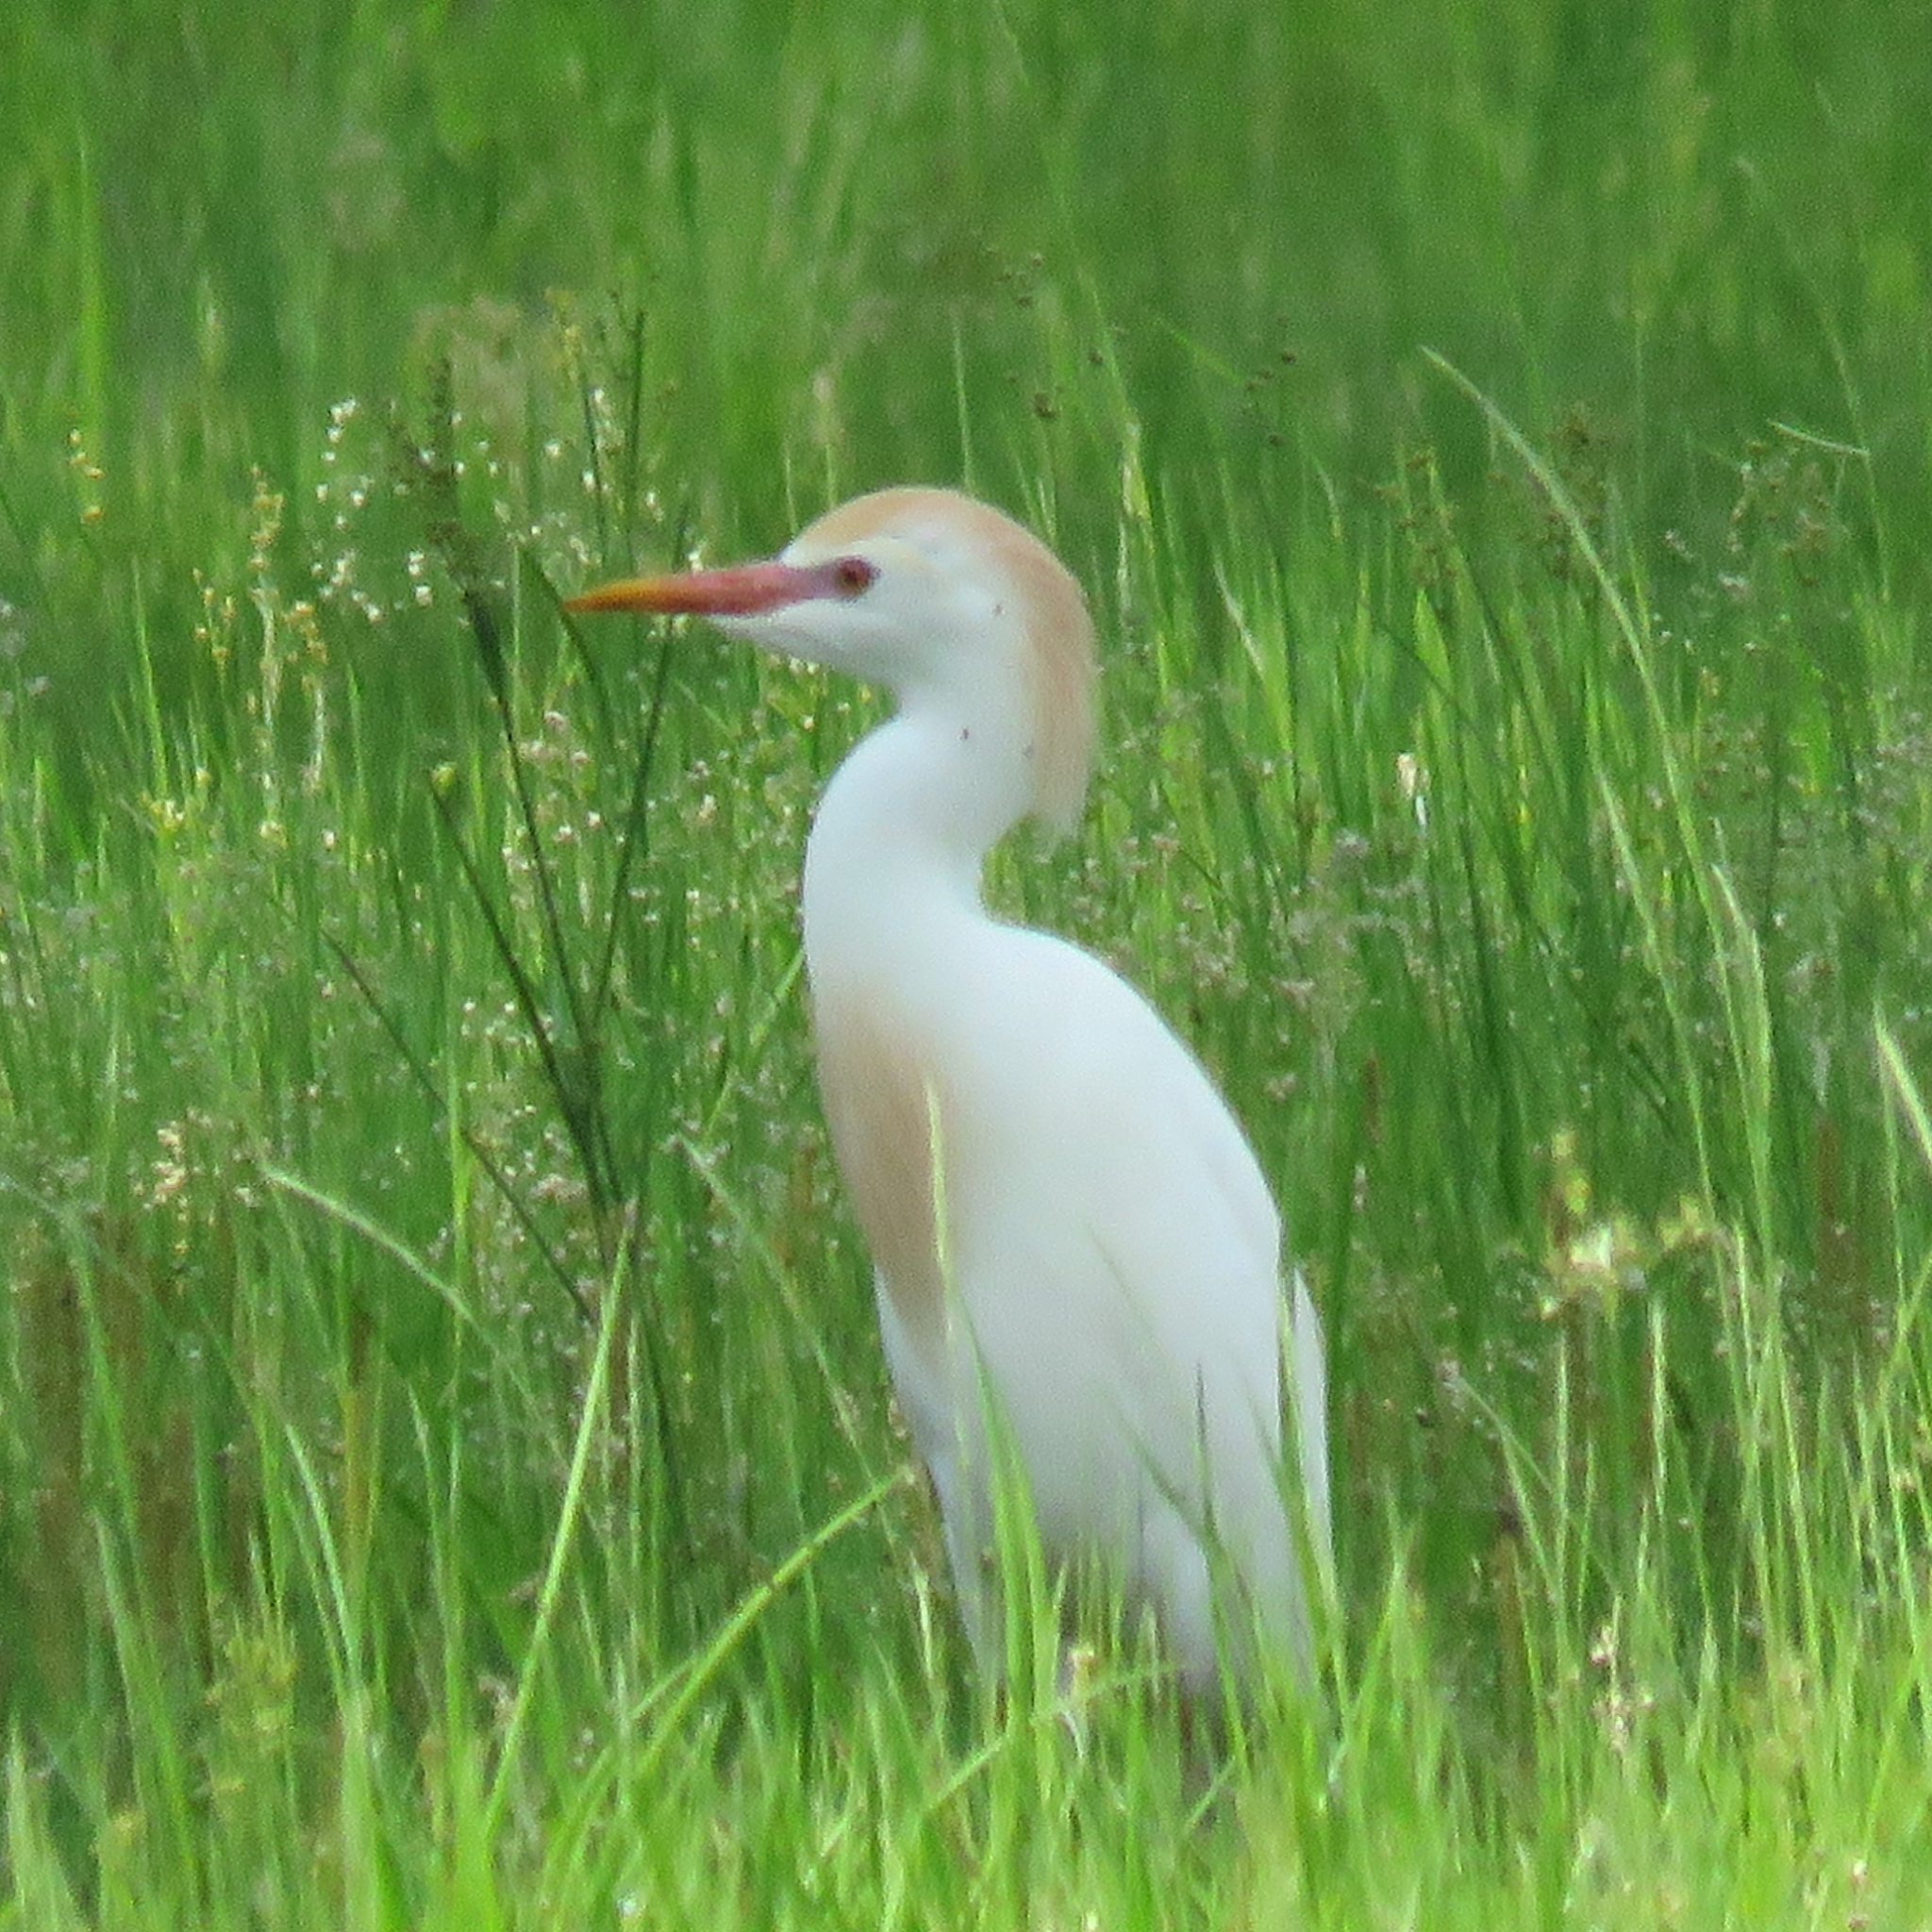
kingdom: Animalia
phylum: Chordata
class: Aves
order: Pelecaniformes
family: Ardeidae
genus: Bubulcus
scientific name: Bubulcus ibis
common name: Cattle egret
